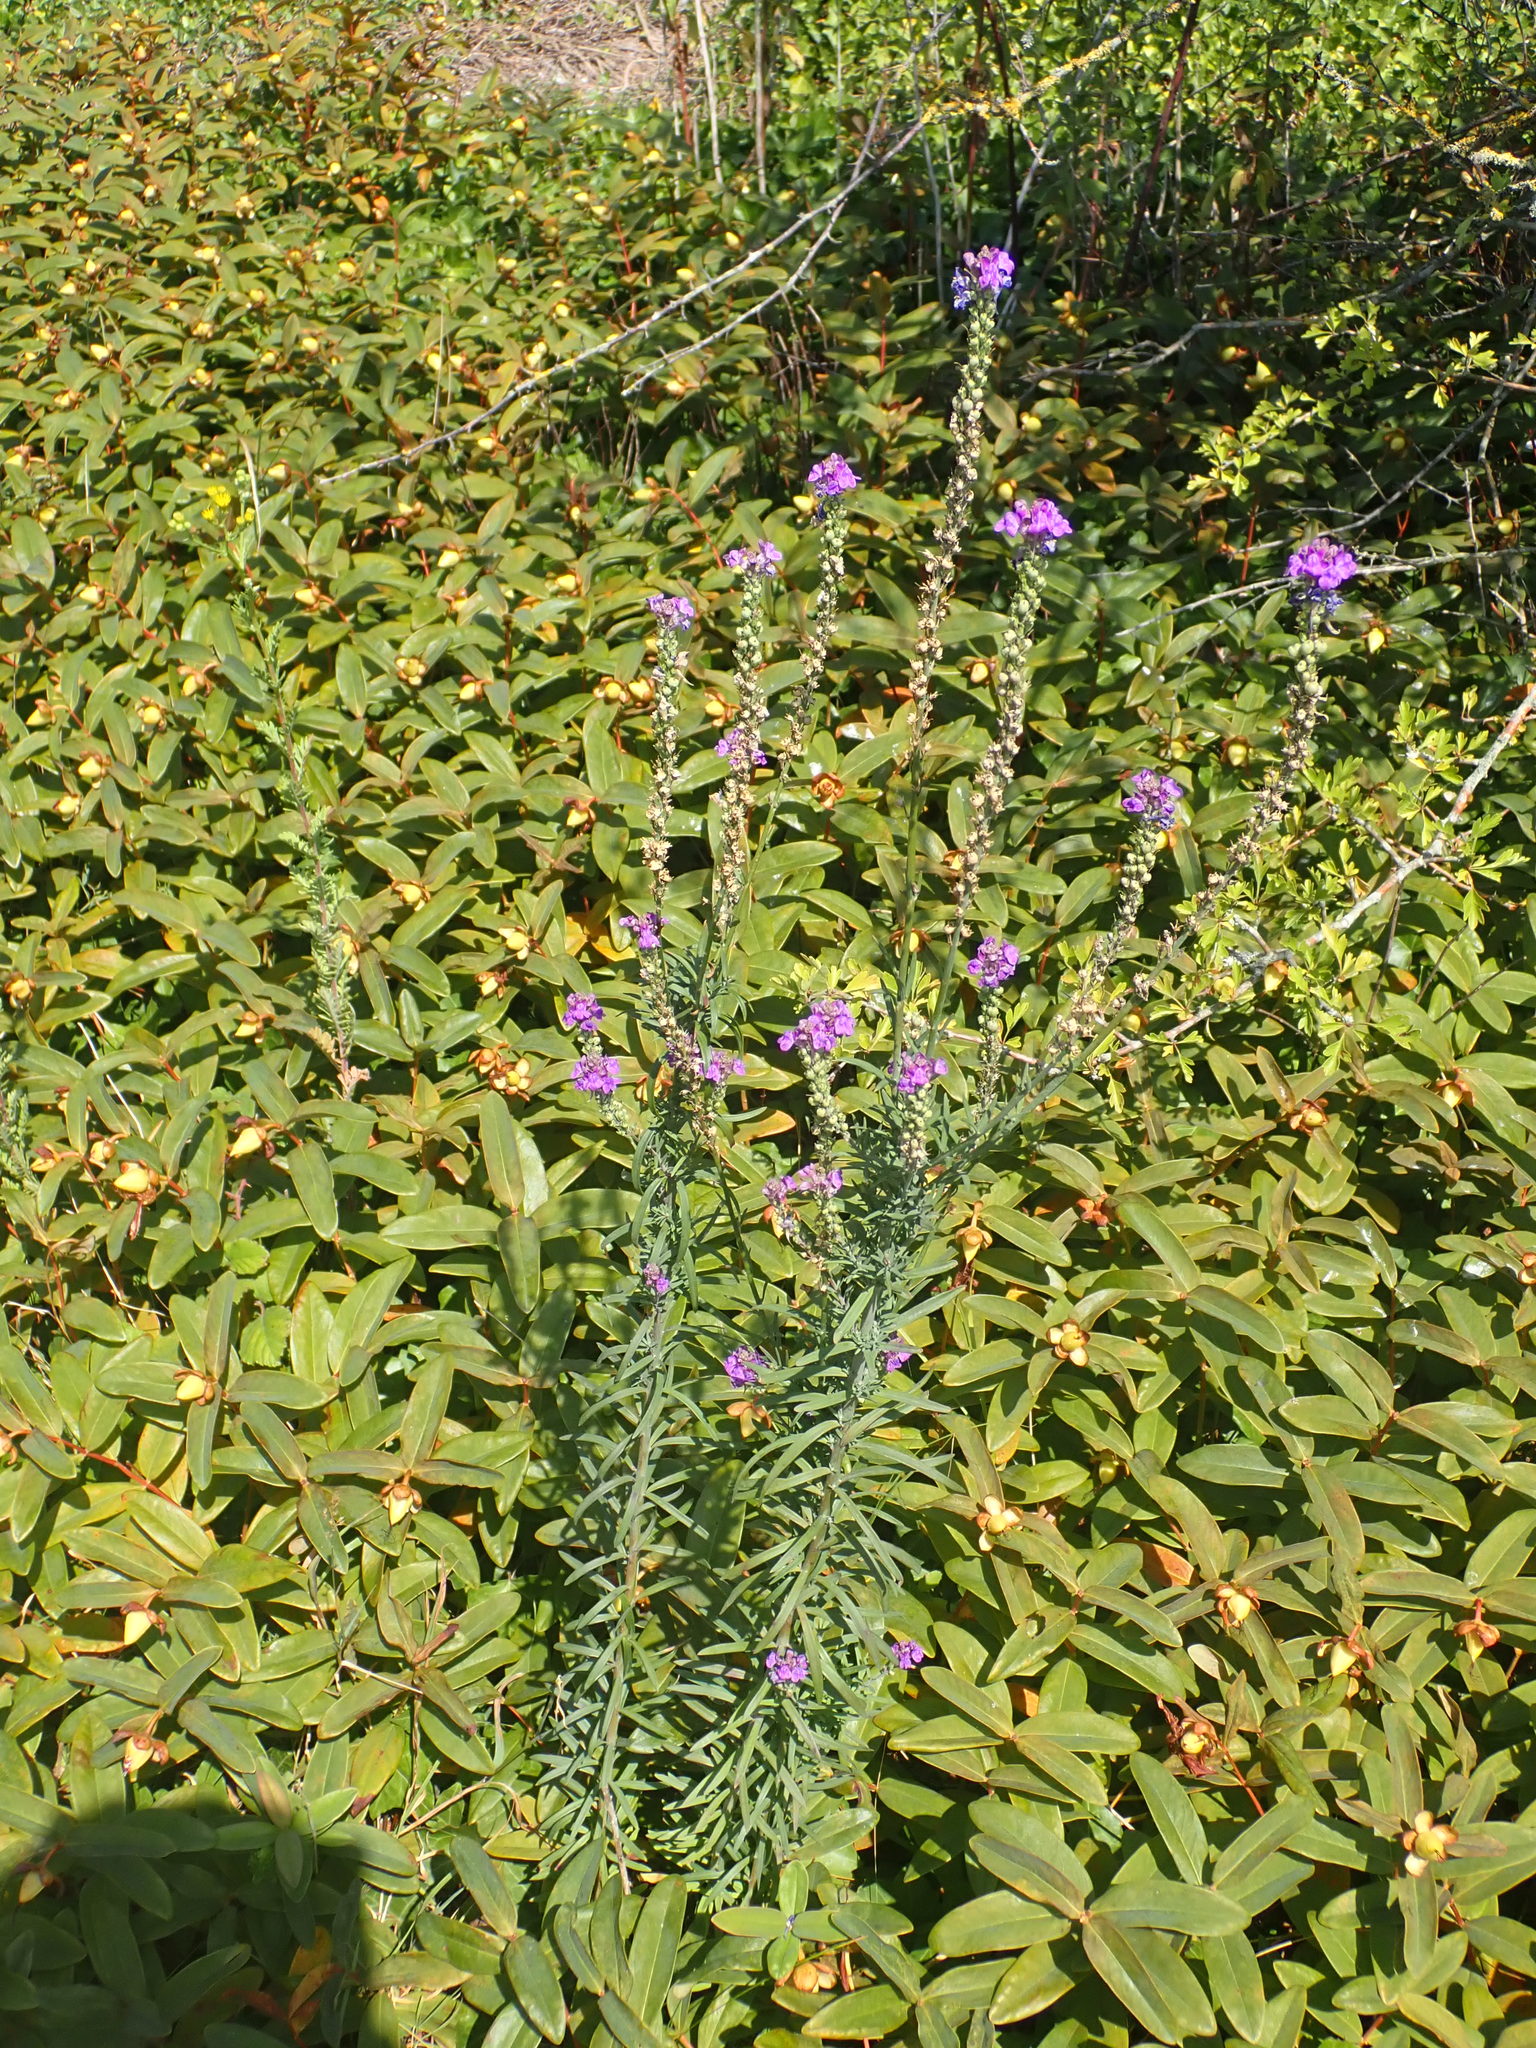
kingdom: Plantae
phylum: Tracheophyta
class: Magnoliopsida
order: Lamiales
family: Plantaginaceae
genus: Linaria
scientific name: Linaria purpurea
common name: Purple toadflax
